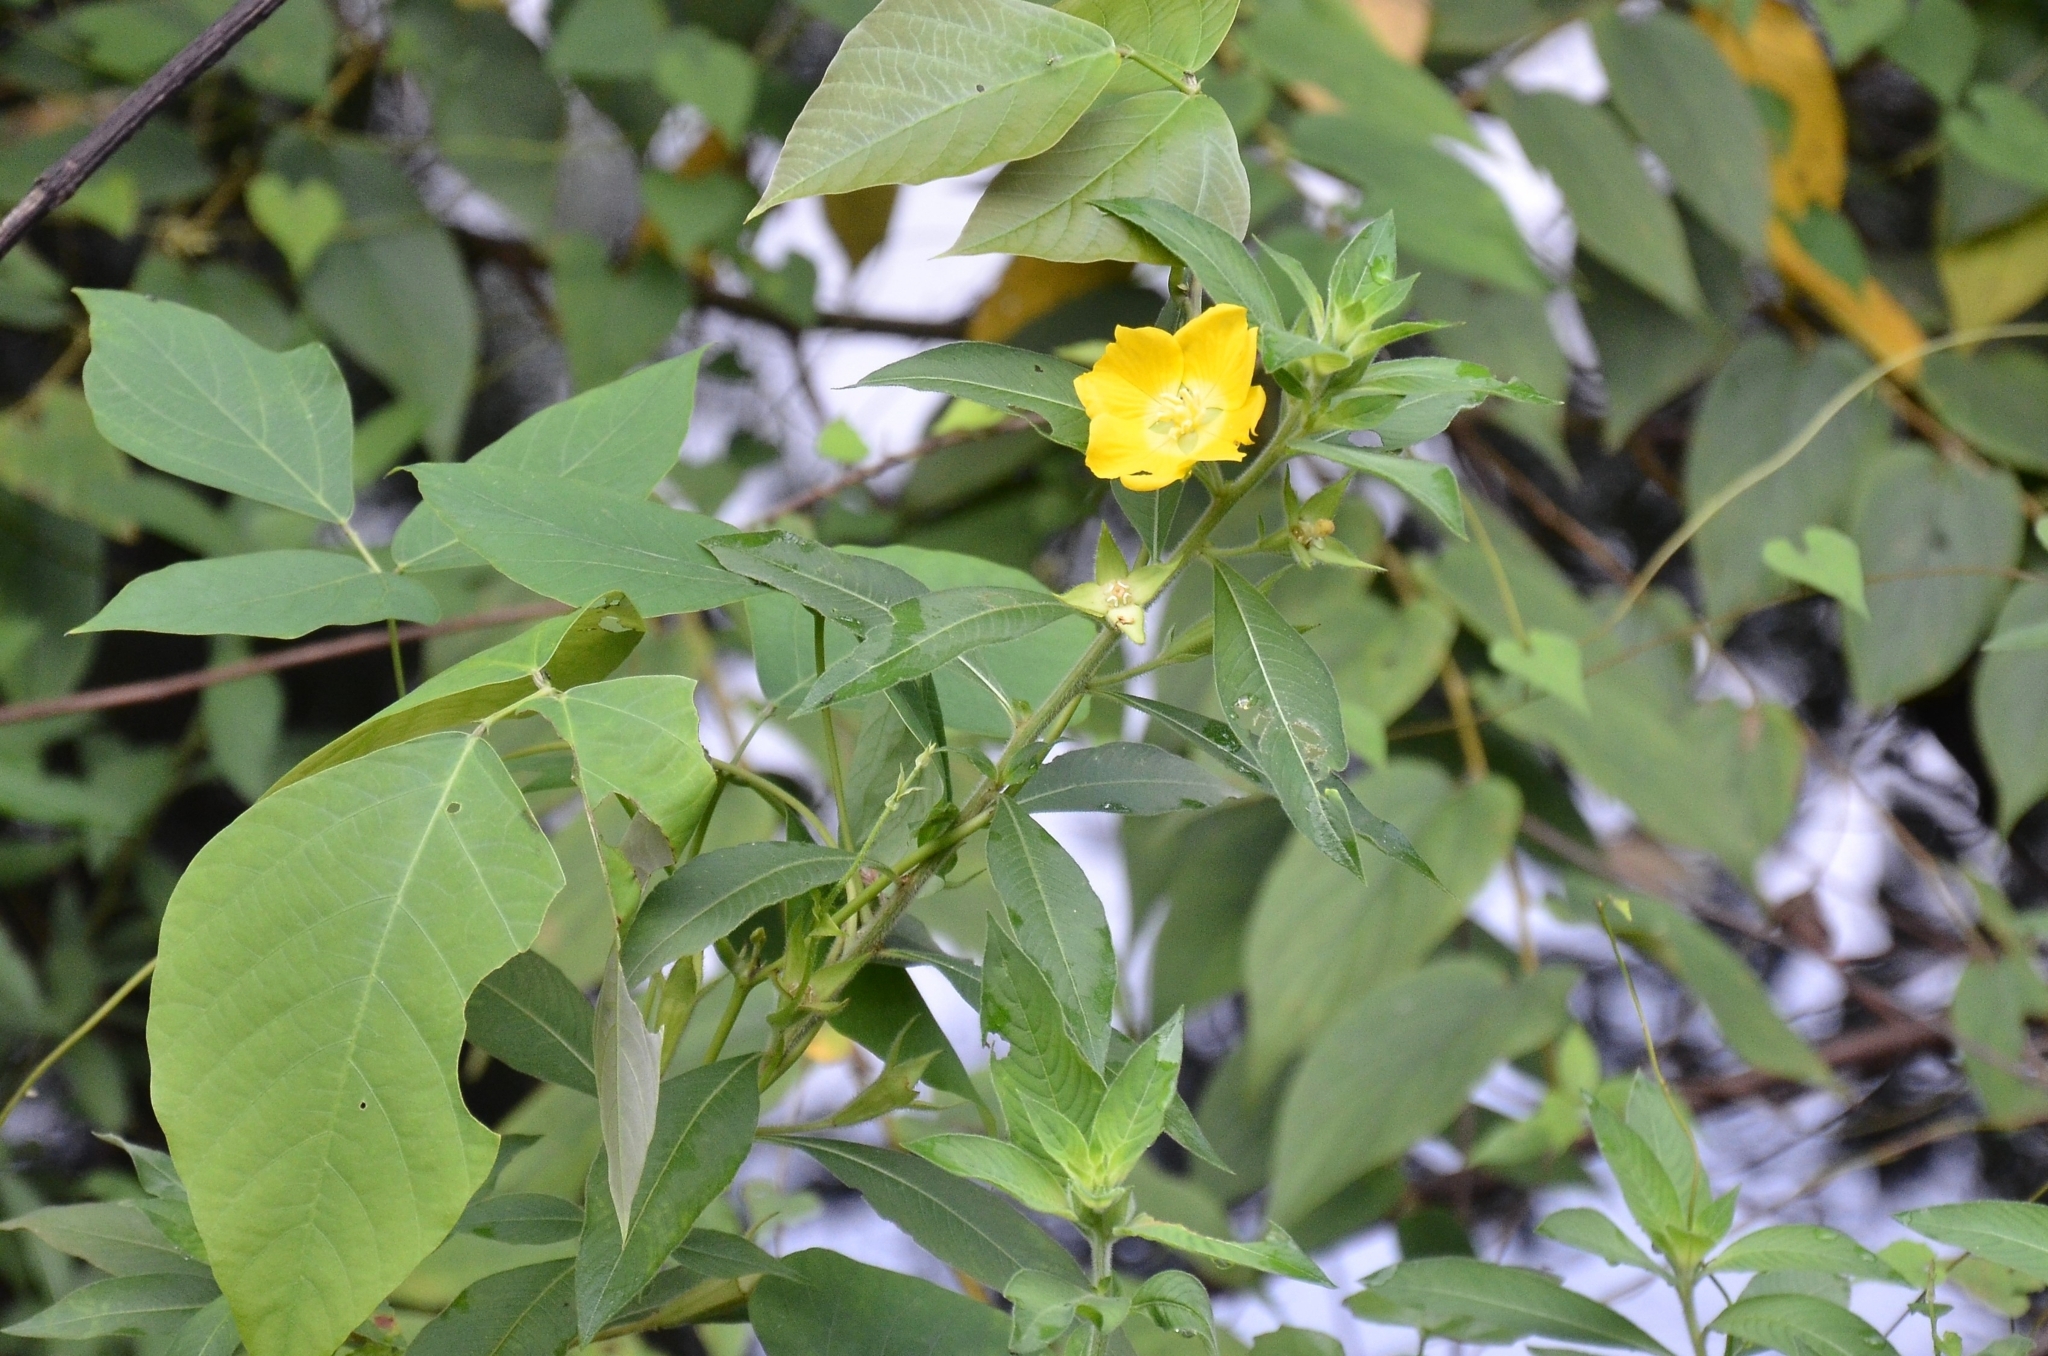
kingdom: Plantae
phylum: Tracheophyta
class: Magnoliopsida
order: Myrtales
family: Onagraceae
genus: Ludwigia
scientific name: Ludwigia peruviana
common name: Peruvian primrose-willow
